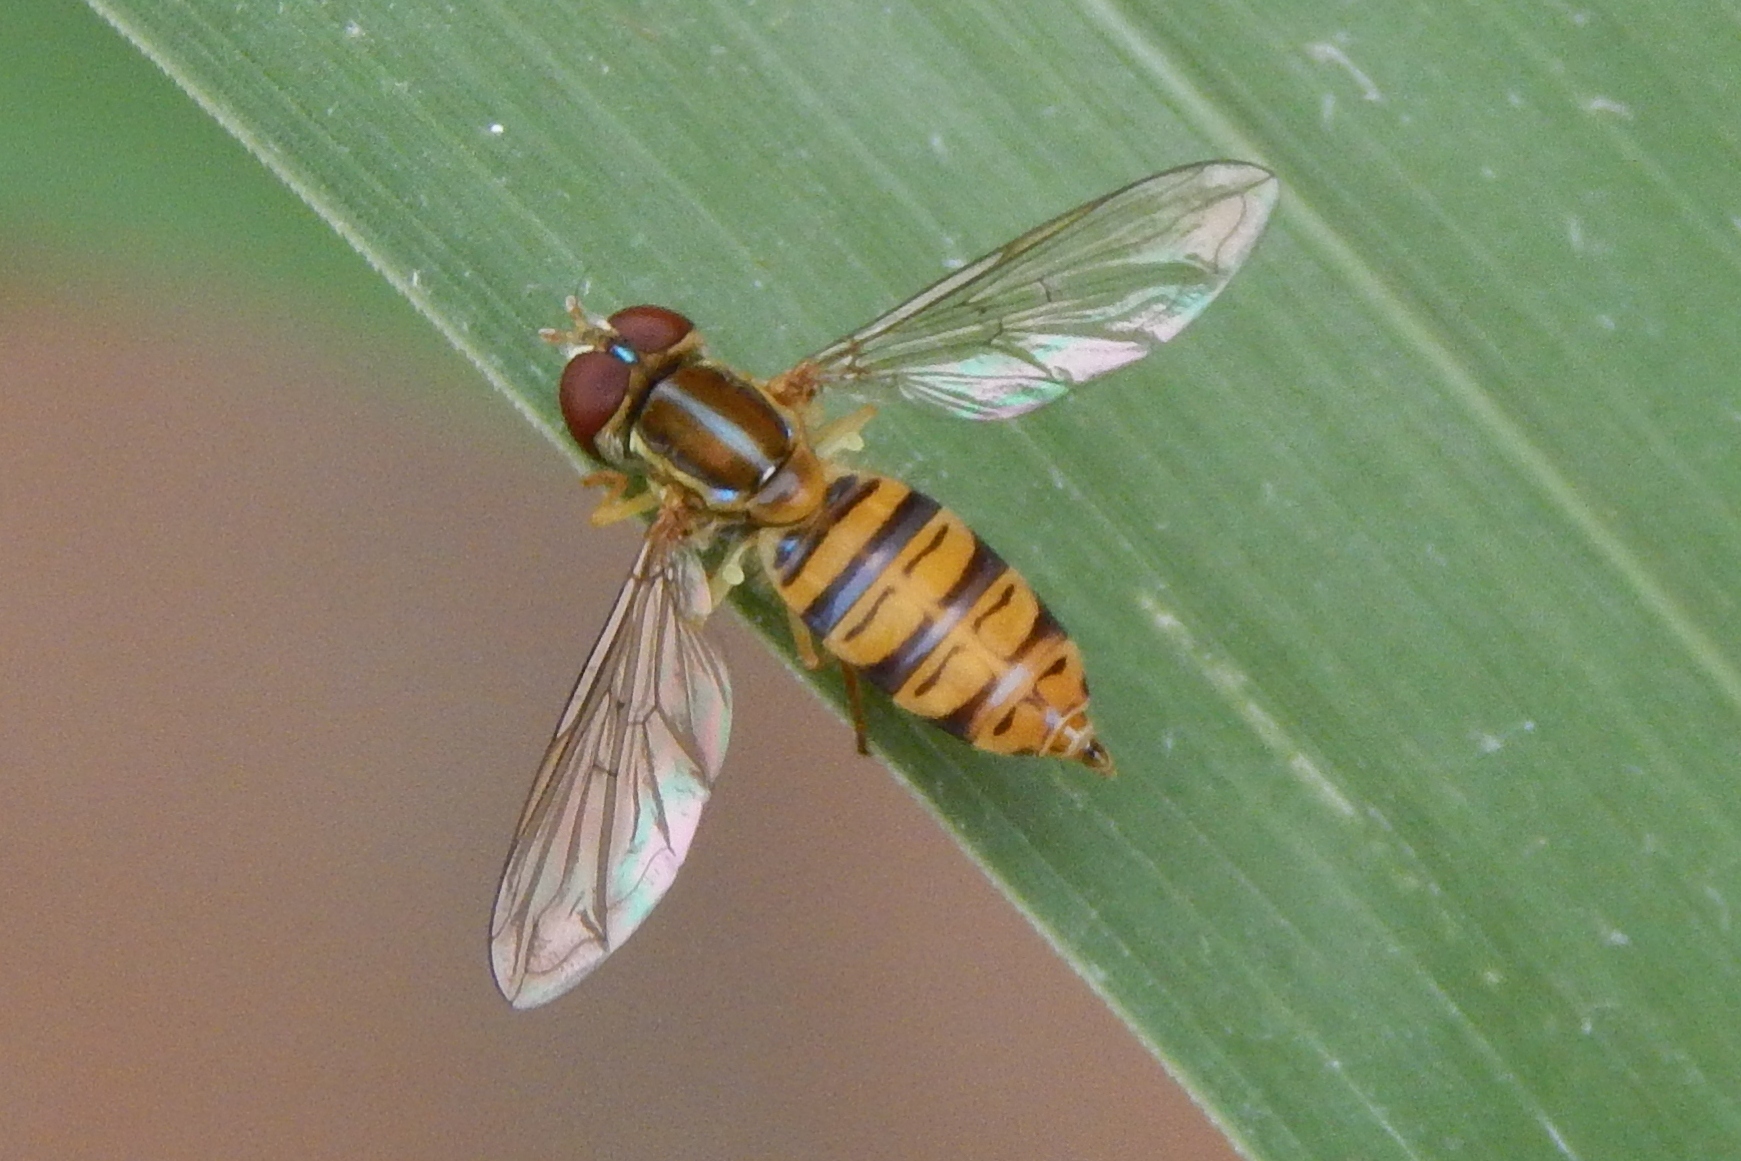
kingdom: Animalia
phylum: Arthropoda
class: Insecta
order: Diptera
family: Syrphidae
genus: Toxomerus
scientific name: Toxomerus politus
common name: Maize calligrapher
